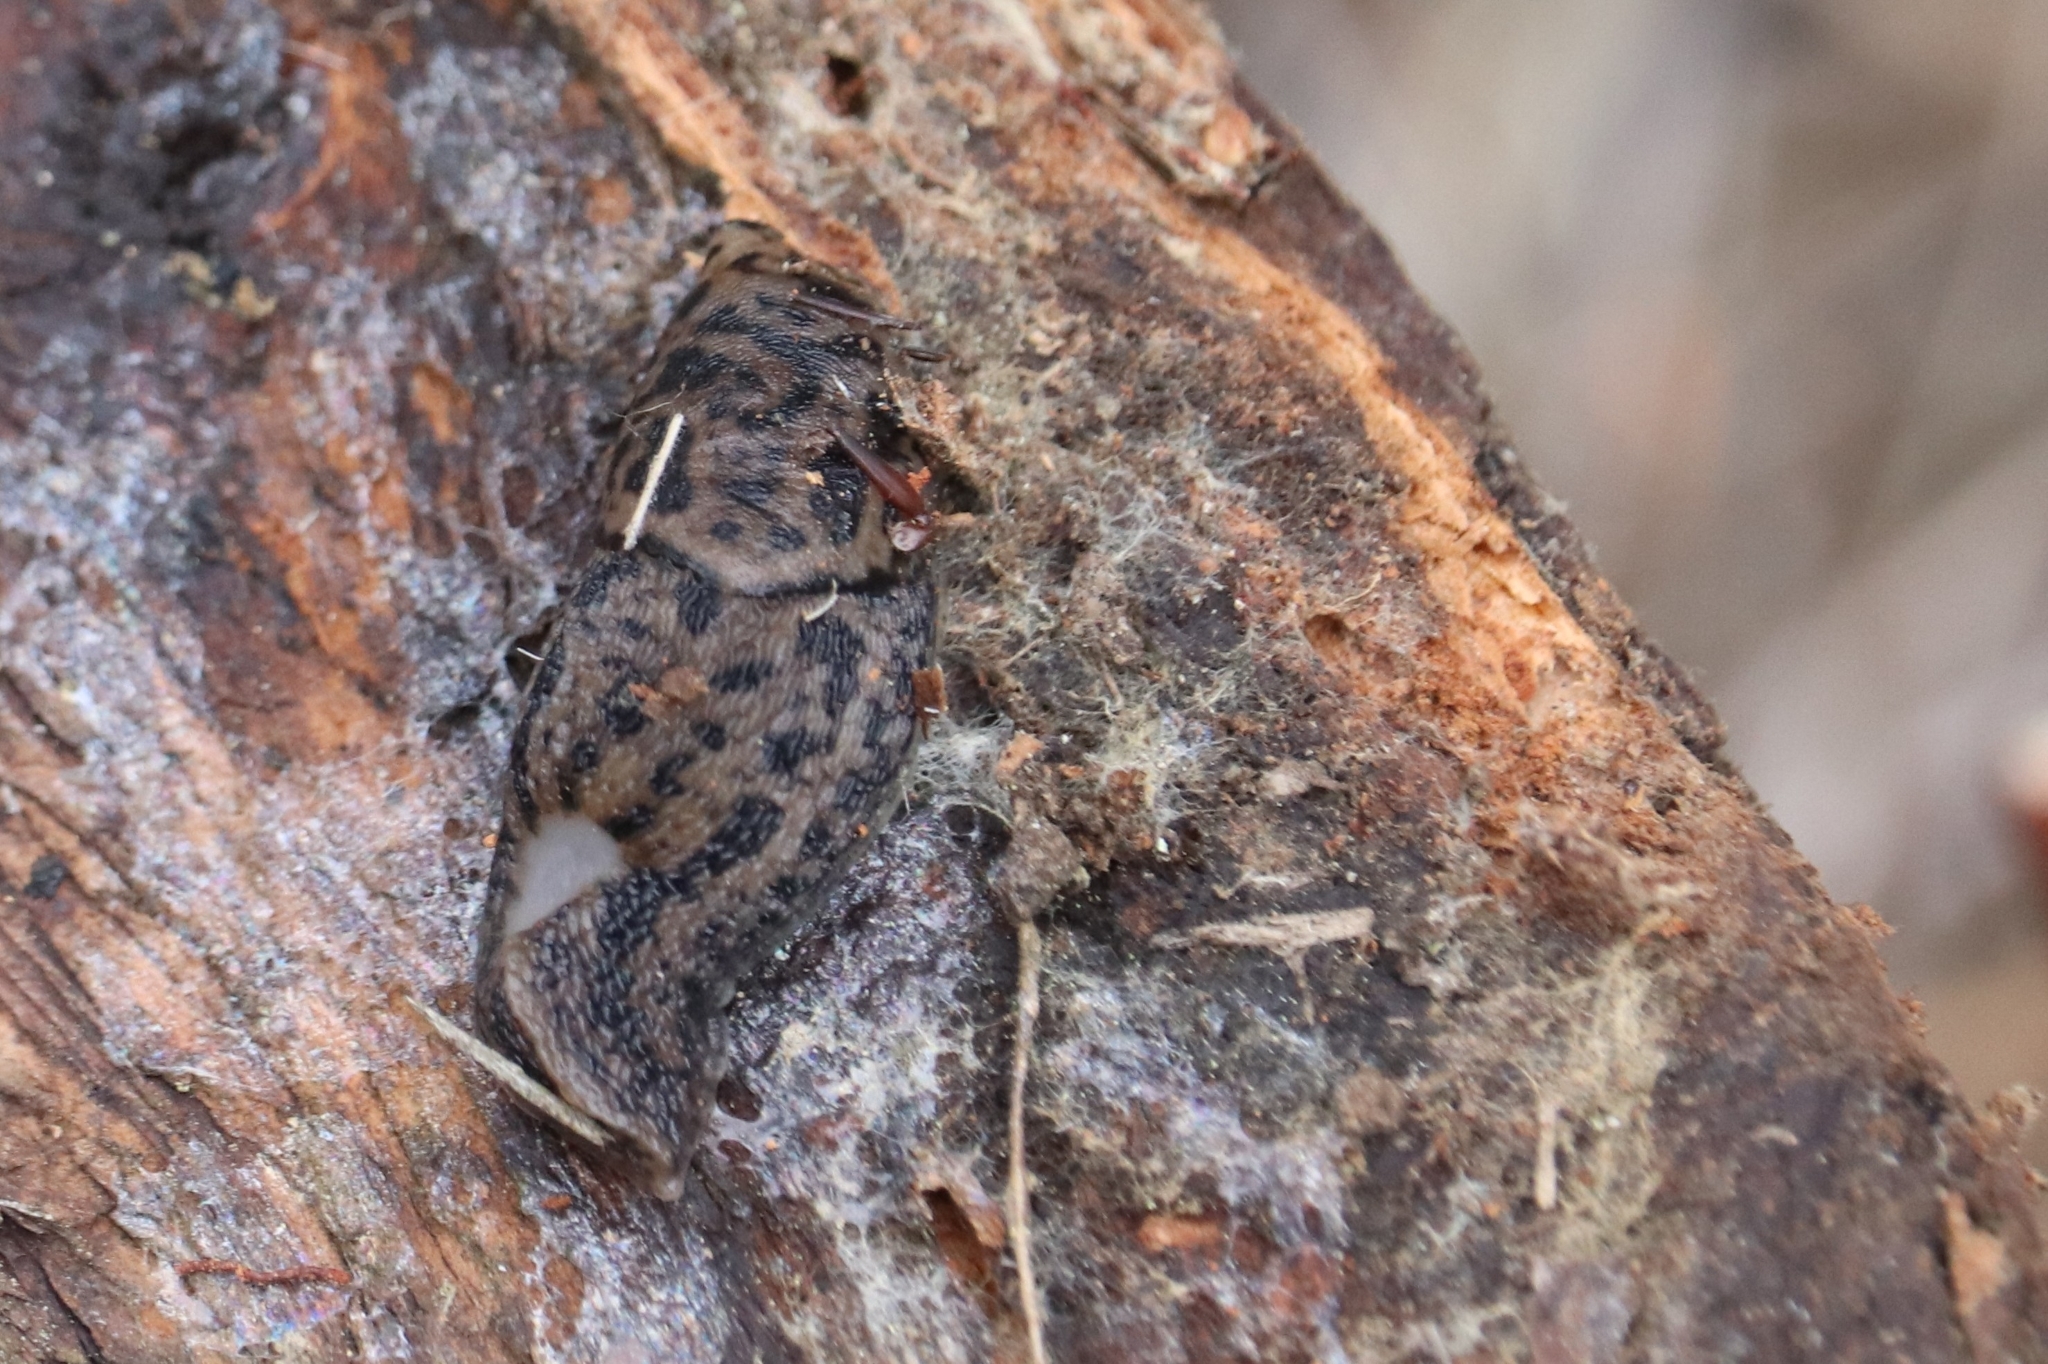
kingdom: Animalia
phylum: Mollusca
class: Gastropoda
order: Stylommatophora
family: Limacidae
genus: Limax
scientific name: Limax maximus
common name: Great grey slug
